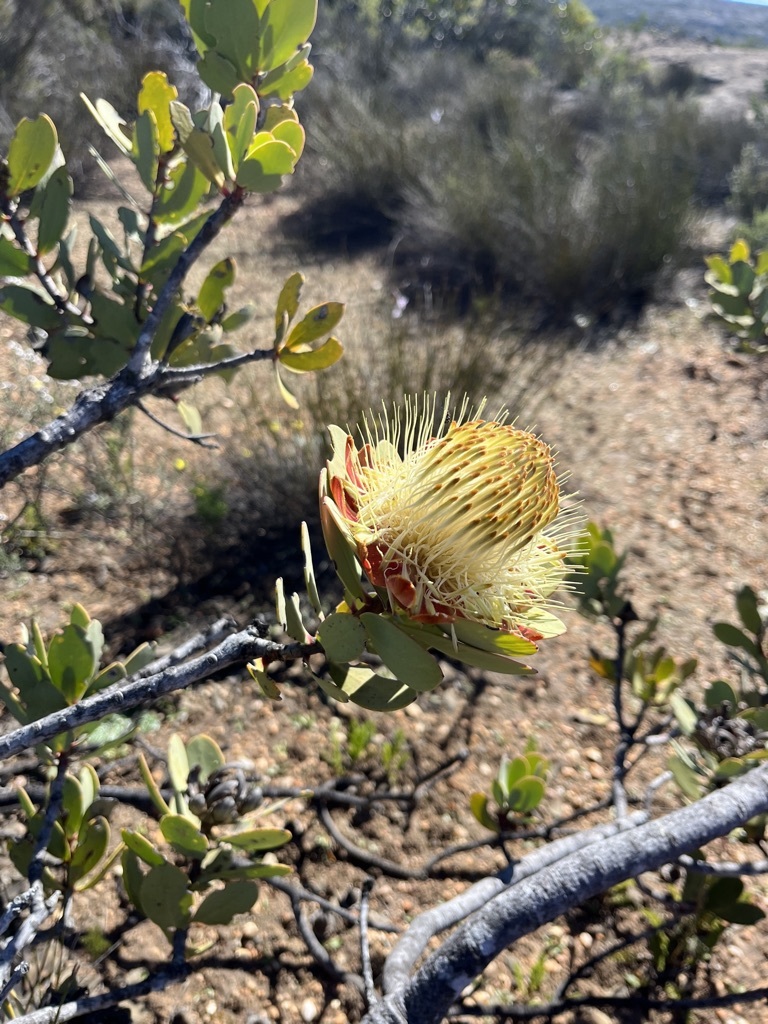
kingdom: Plantae
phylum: Tracheophyta
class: Magnoliopsida
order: Proteales
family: Proteaceae
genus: Protea
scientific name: Protea glabra
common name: Chestnut sugarbush
